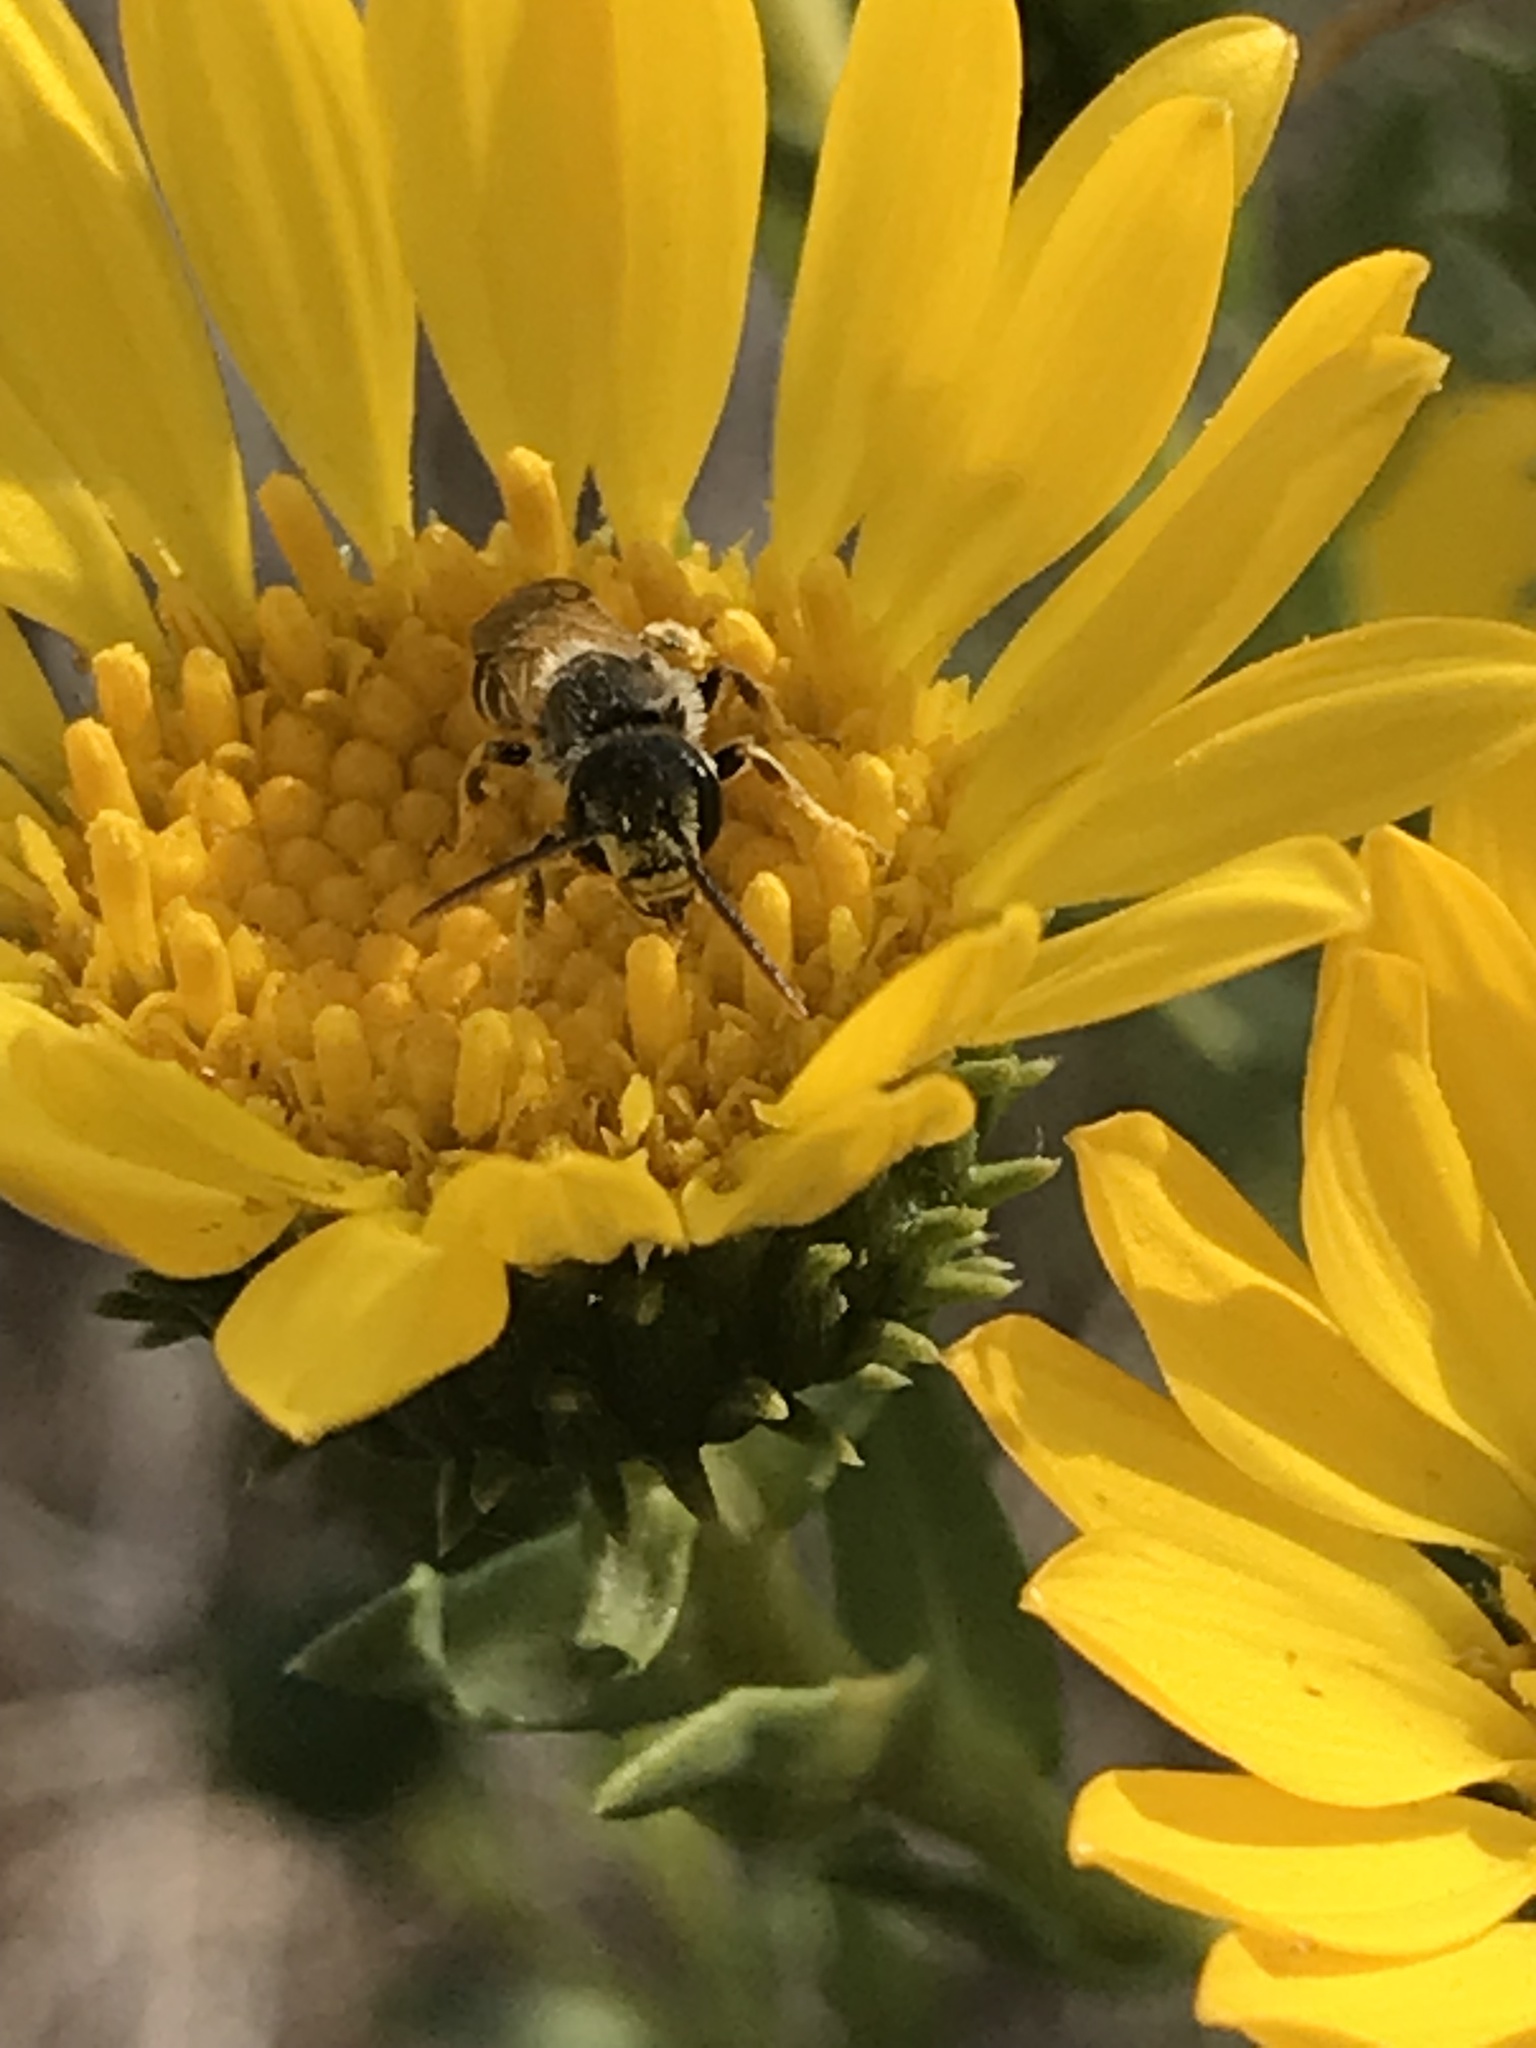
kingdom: Animalia
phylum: Arthropoda
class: Insecta
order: Hymenoptera
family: Halictidae
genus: Halictus
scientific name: Halictus ligatus
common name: Ligated furrow bee
